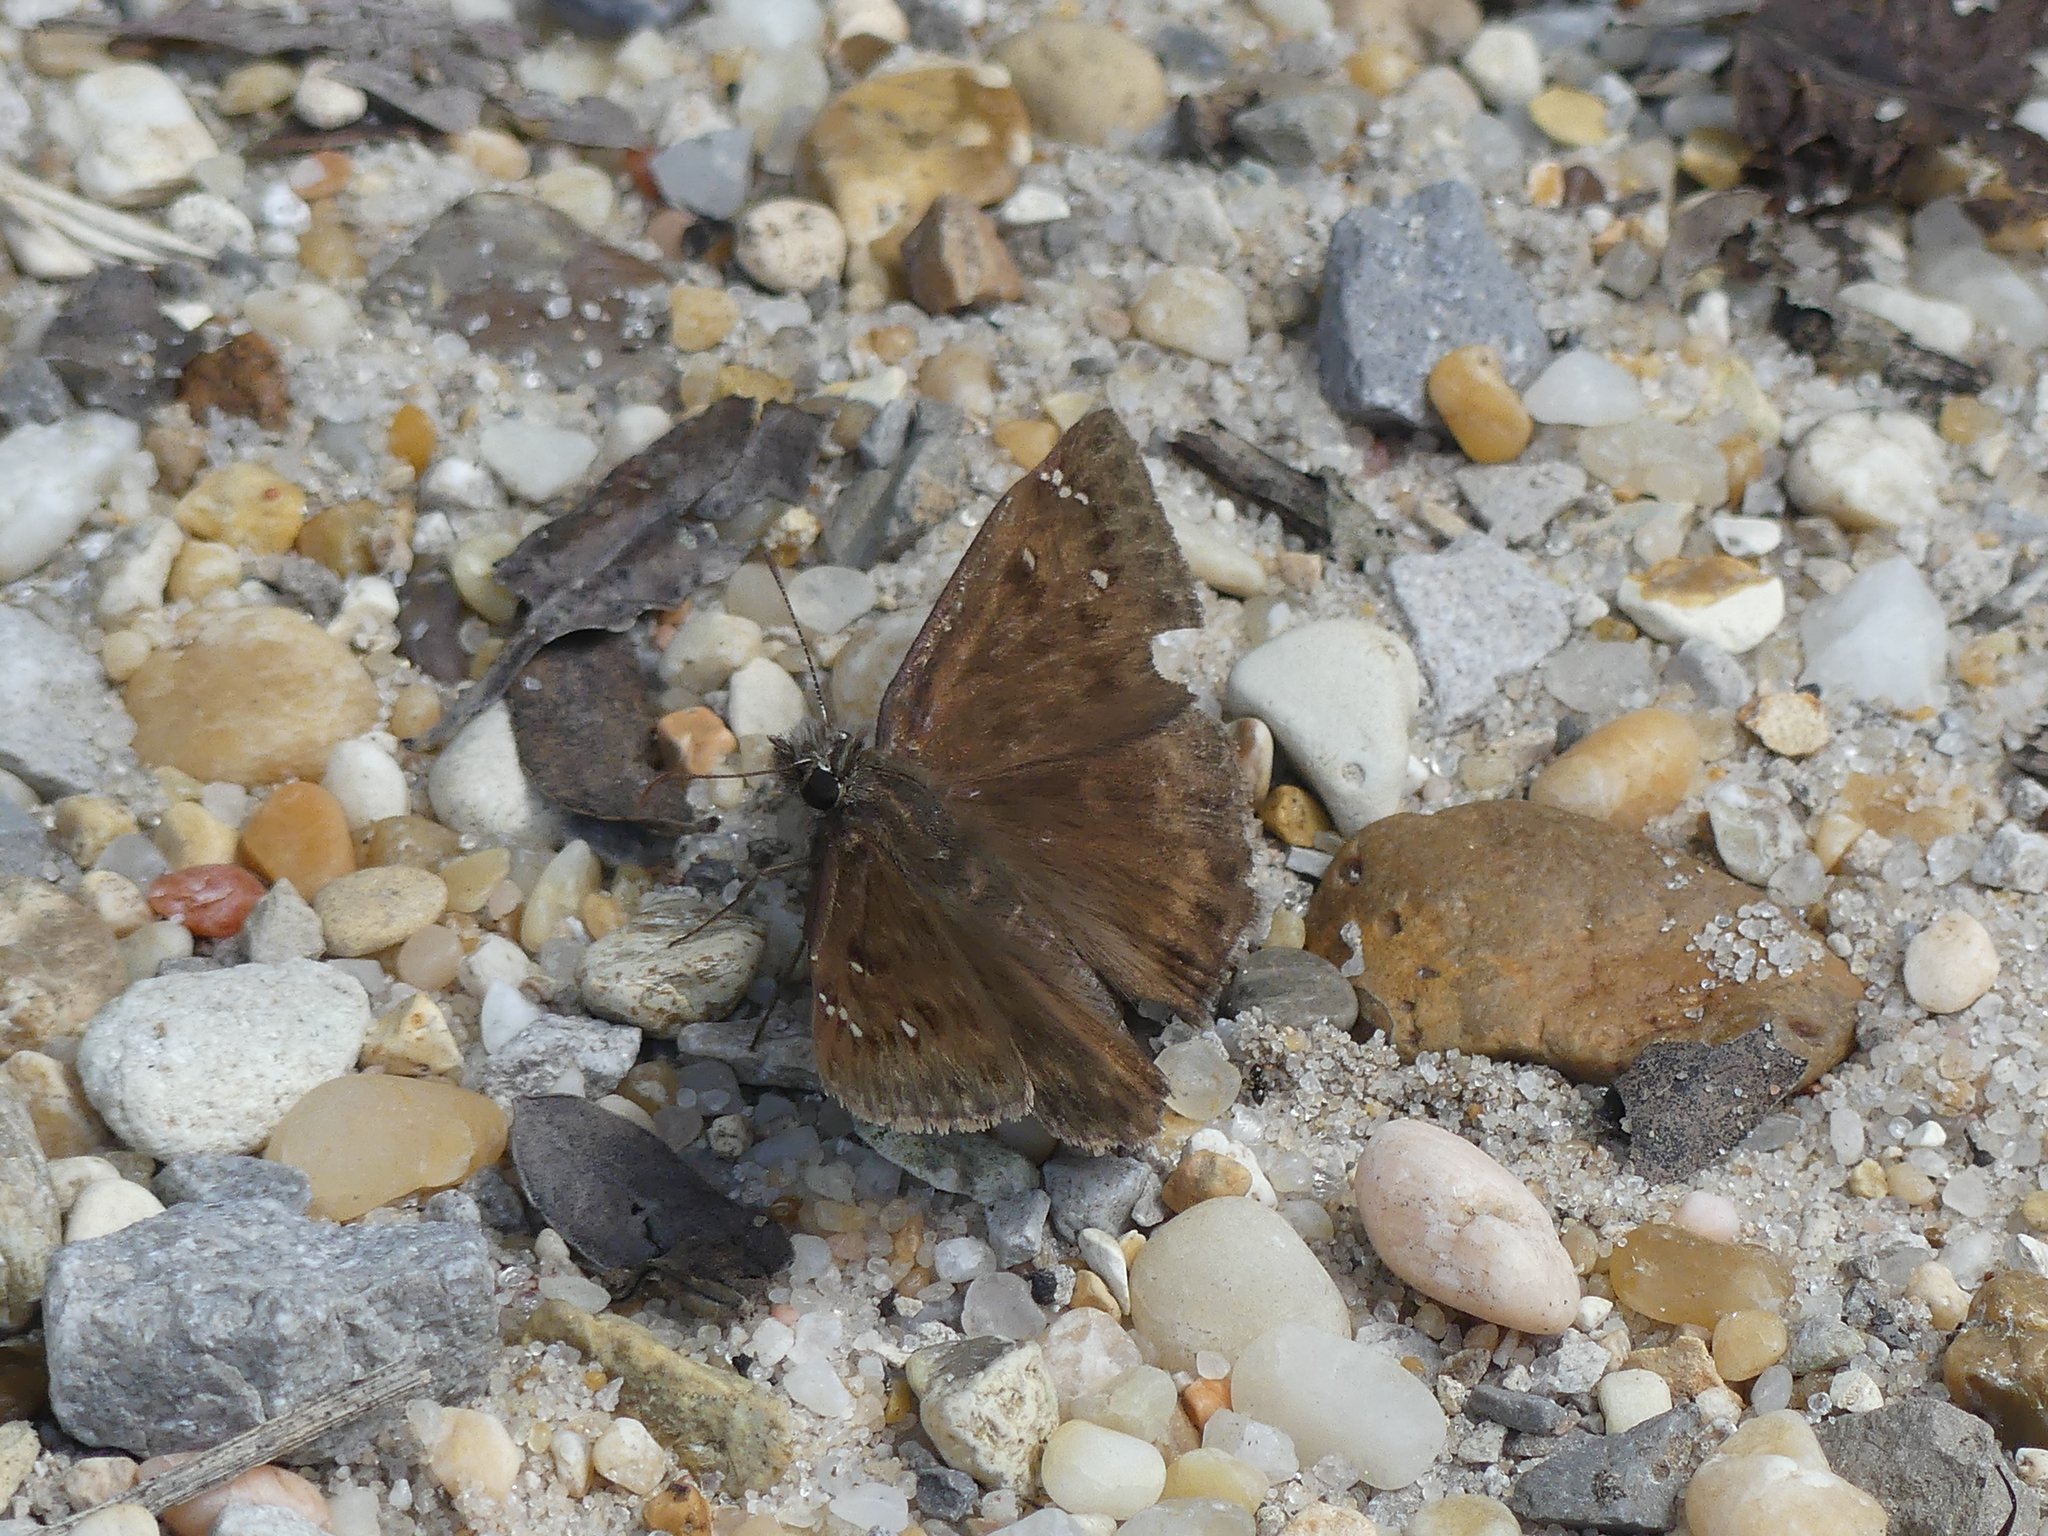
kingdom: Animalia
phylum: Arthropoda
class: Insecta
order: Lepidoptera
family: Hesperiidae
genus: Erynnis
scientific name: Erynnis horatius
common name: Horace's duskywing
